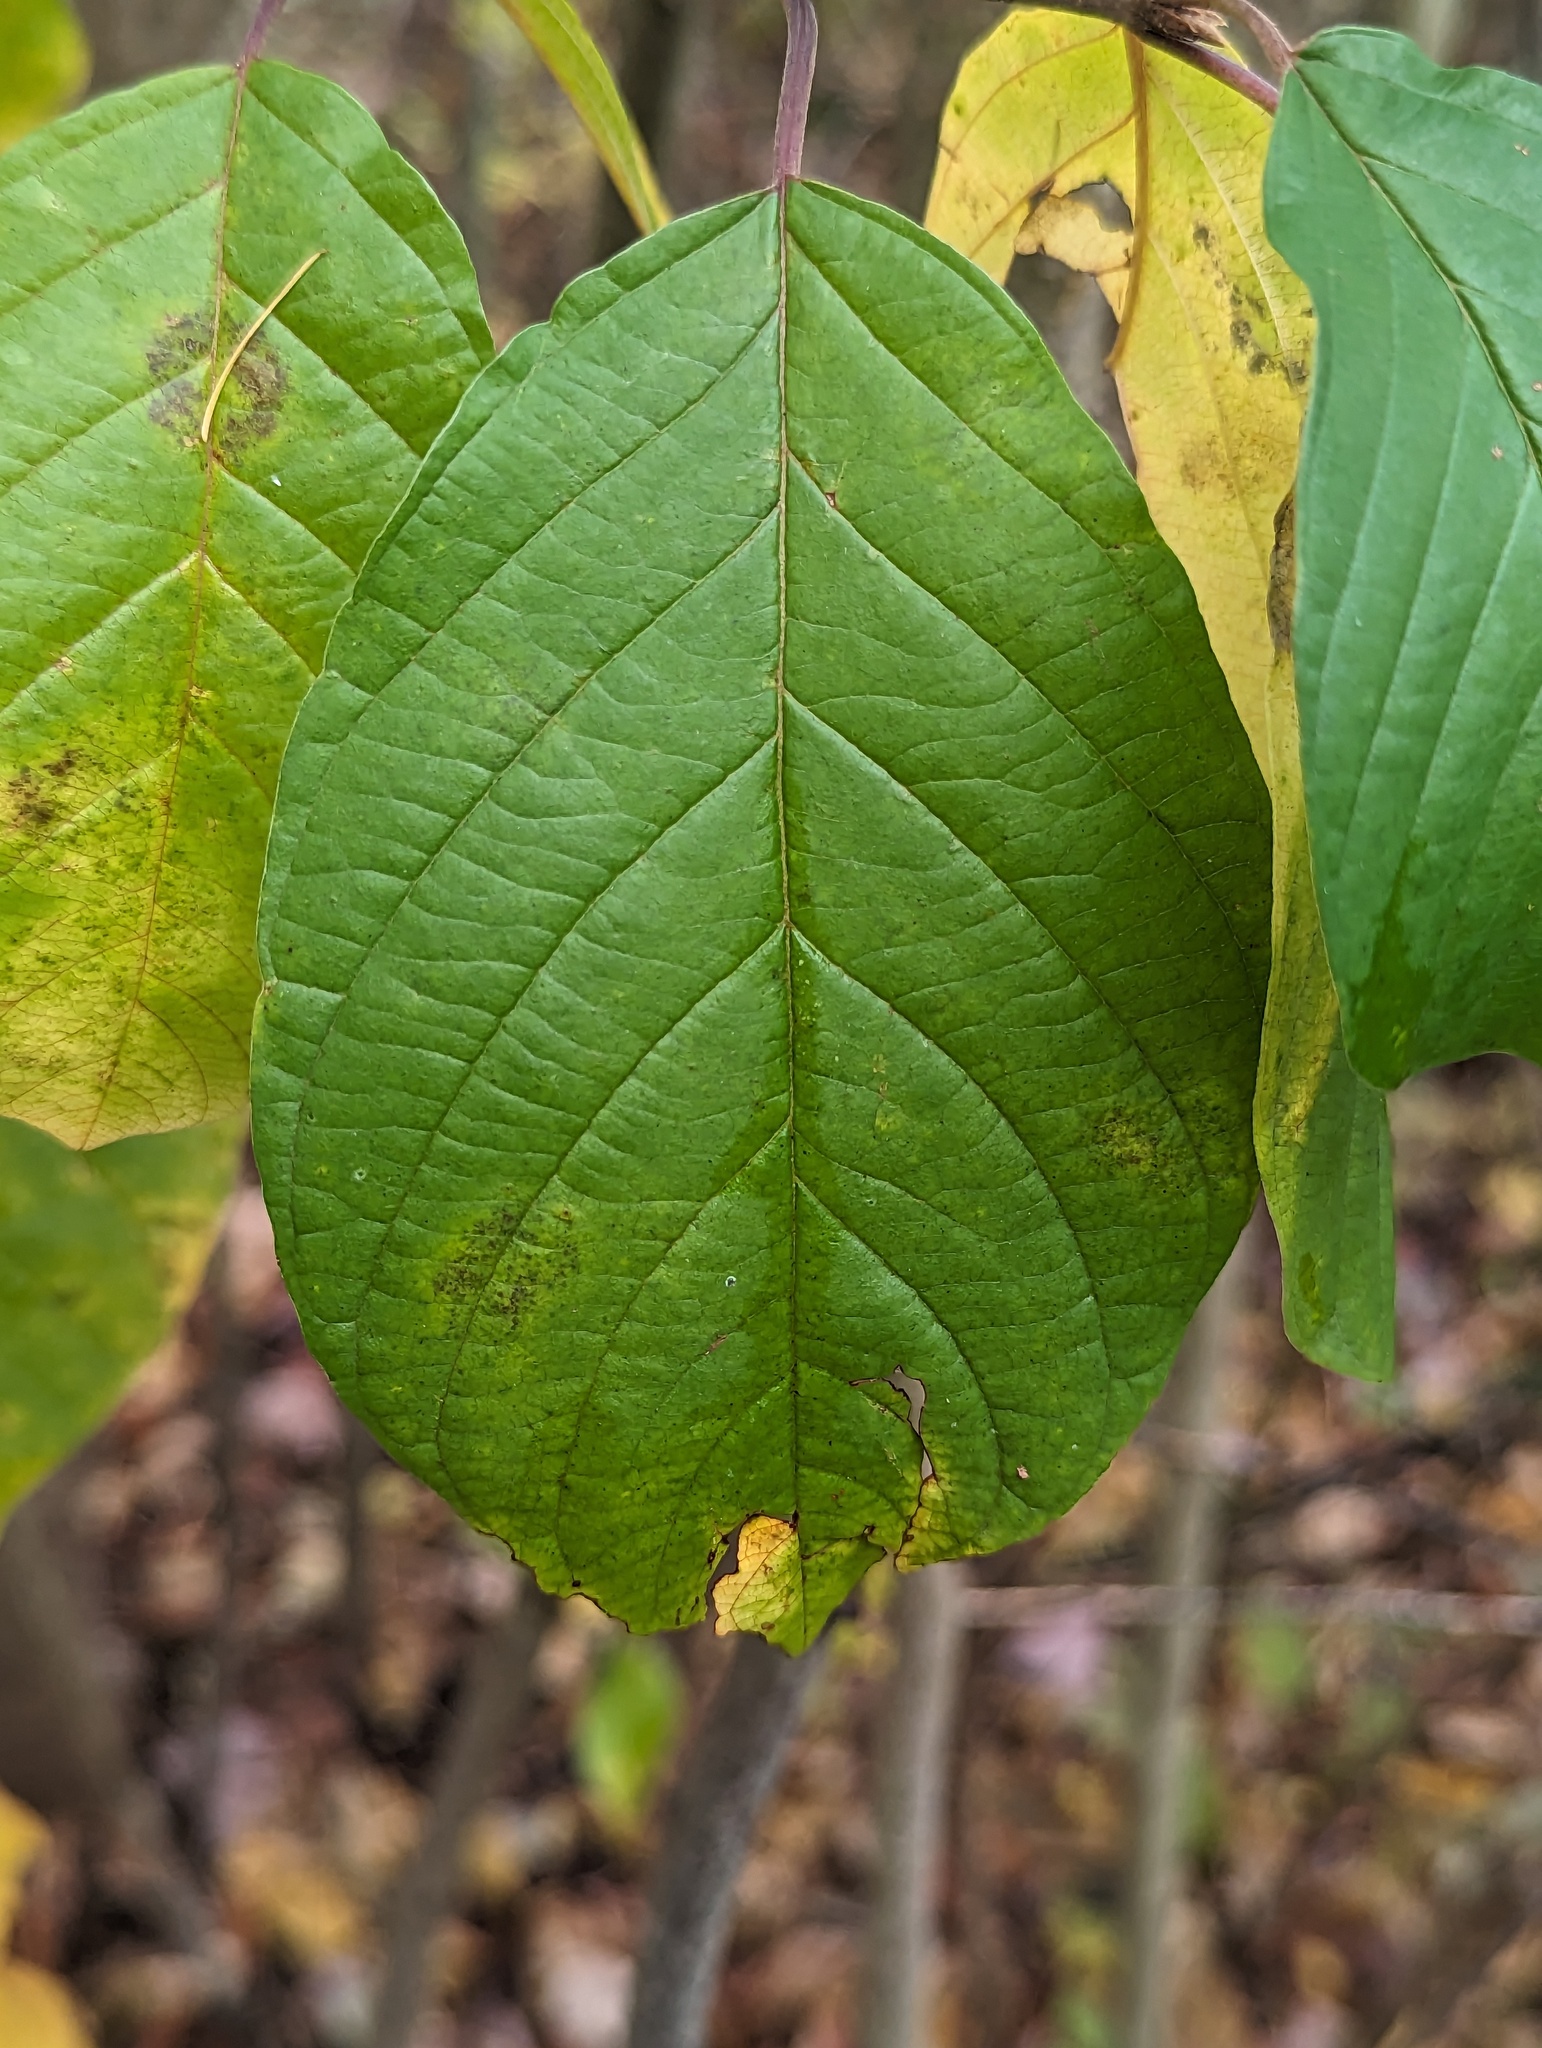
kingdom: Plantae
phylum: Tracheophyta
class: Magnoliopsida
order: Rosales
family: Rhamnaceae
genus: Frangula
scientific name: Frangula alnus
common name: Alder buckthorn
